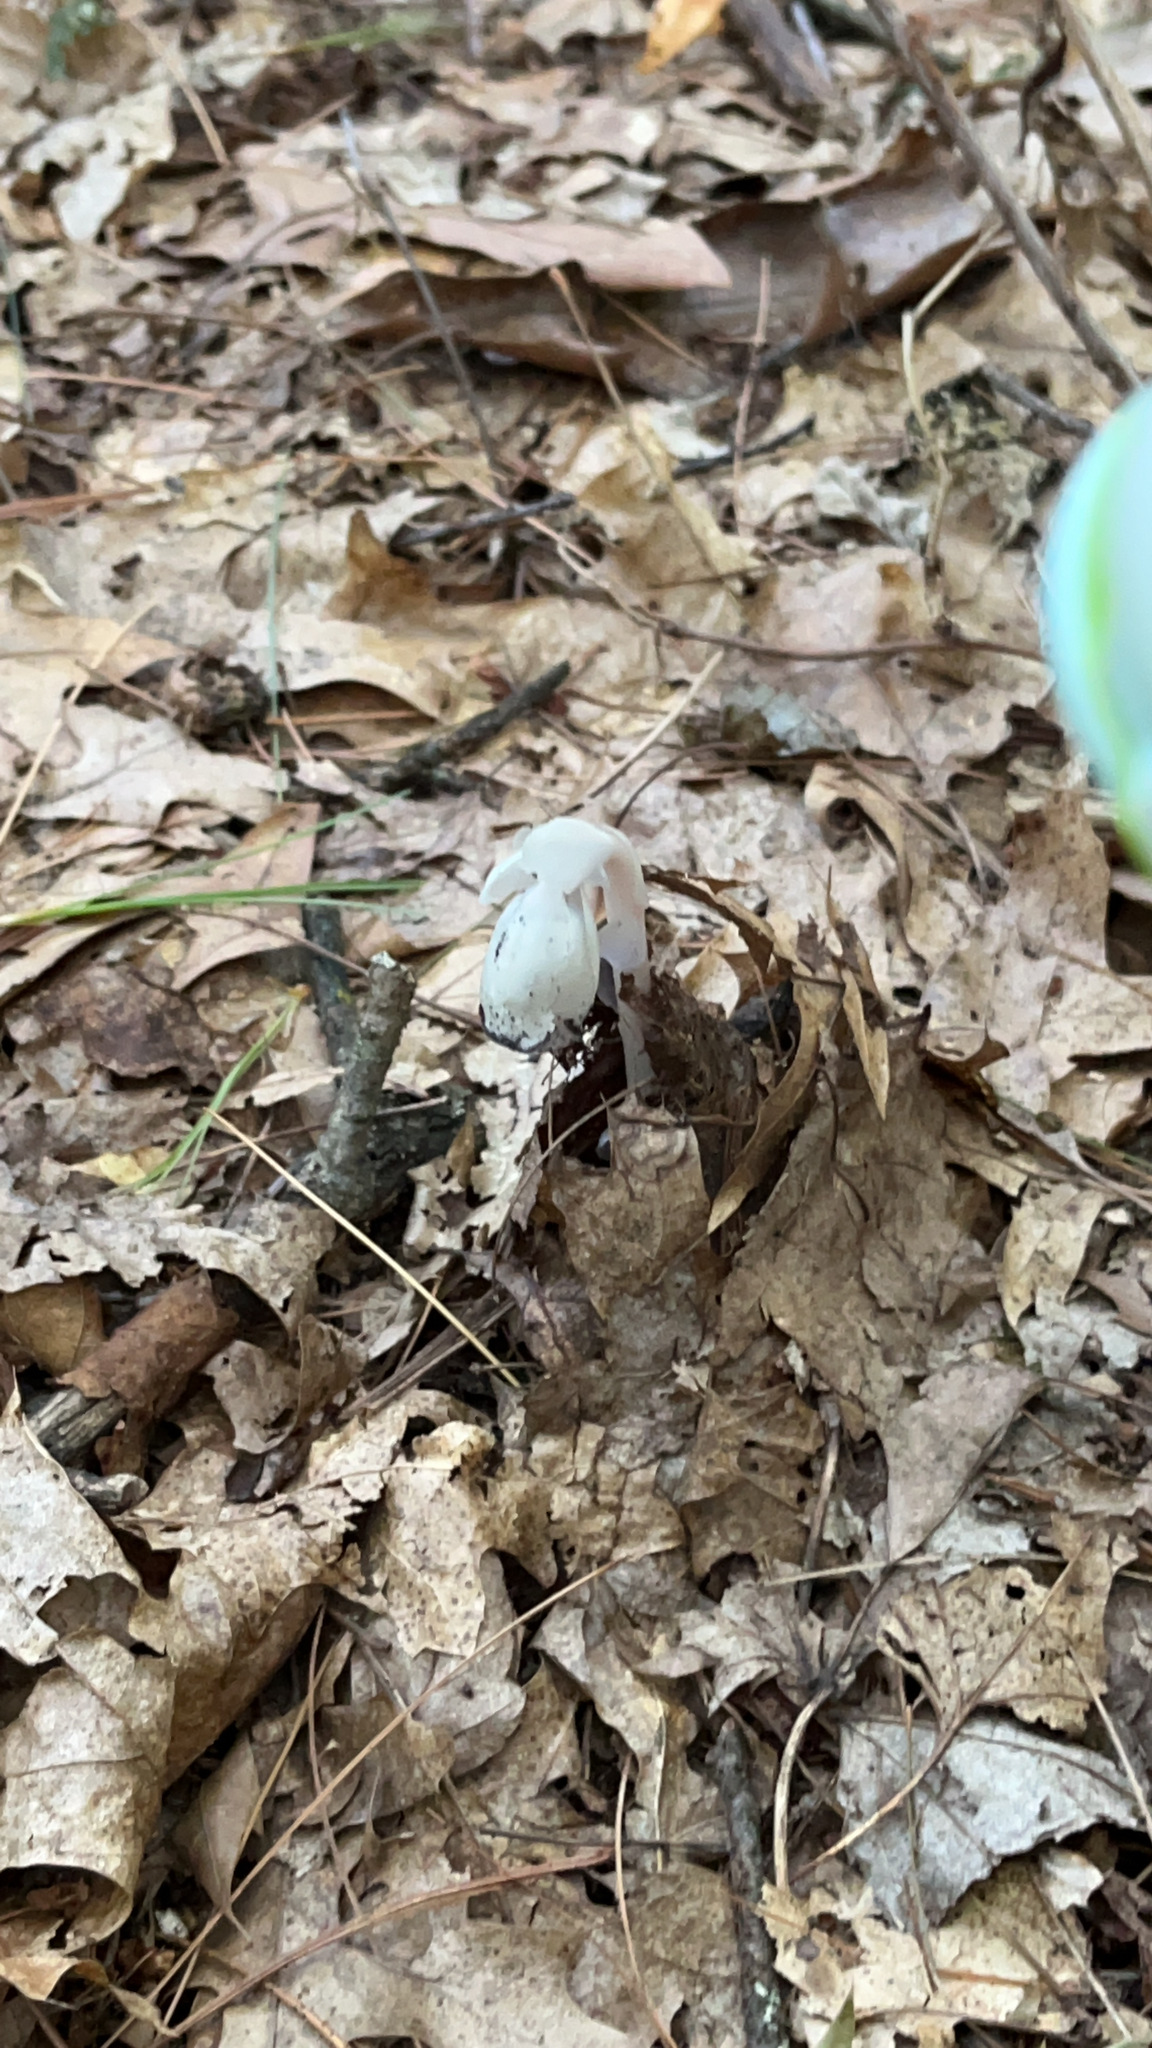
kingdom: Plantae
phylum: Tracheophyta
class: Magnoliopsida
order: Ericales
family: Ericaceae
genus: Monotropa
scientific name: Monotropa uniflora
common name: Convulsion root
